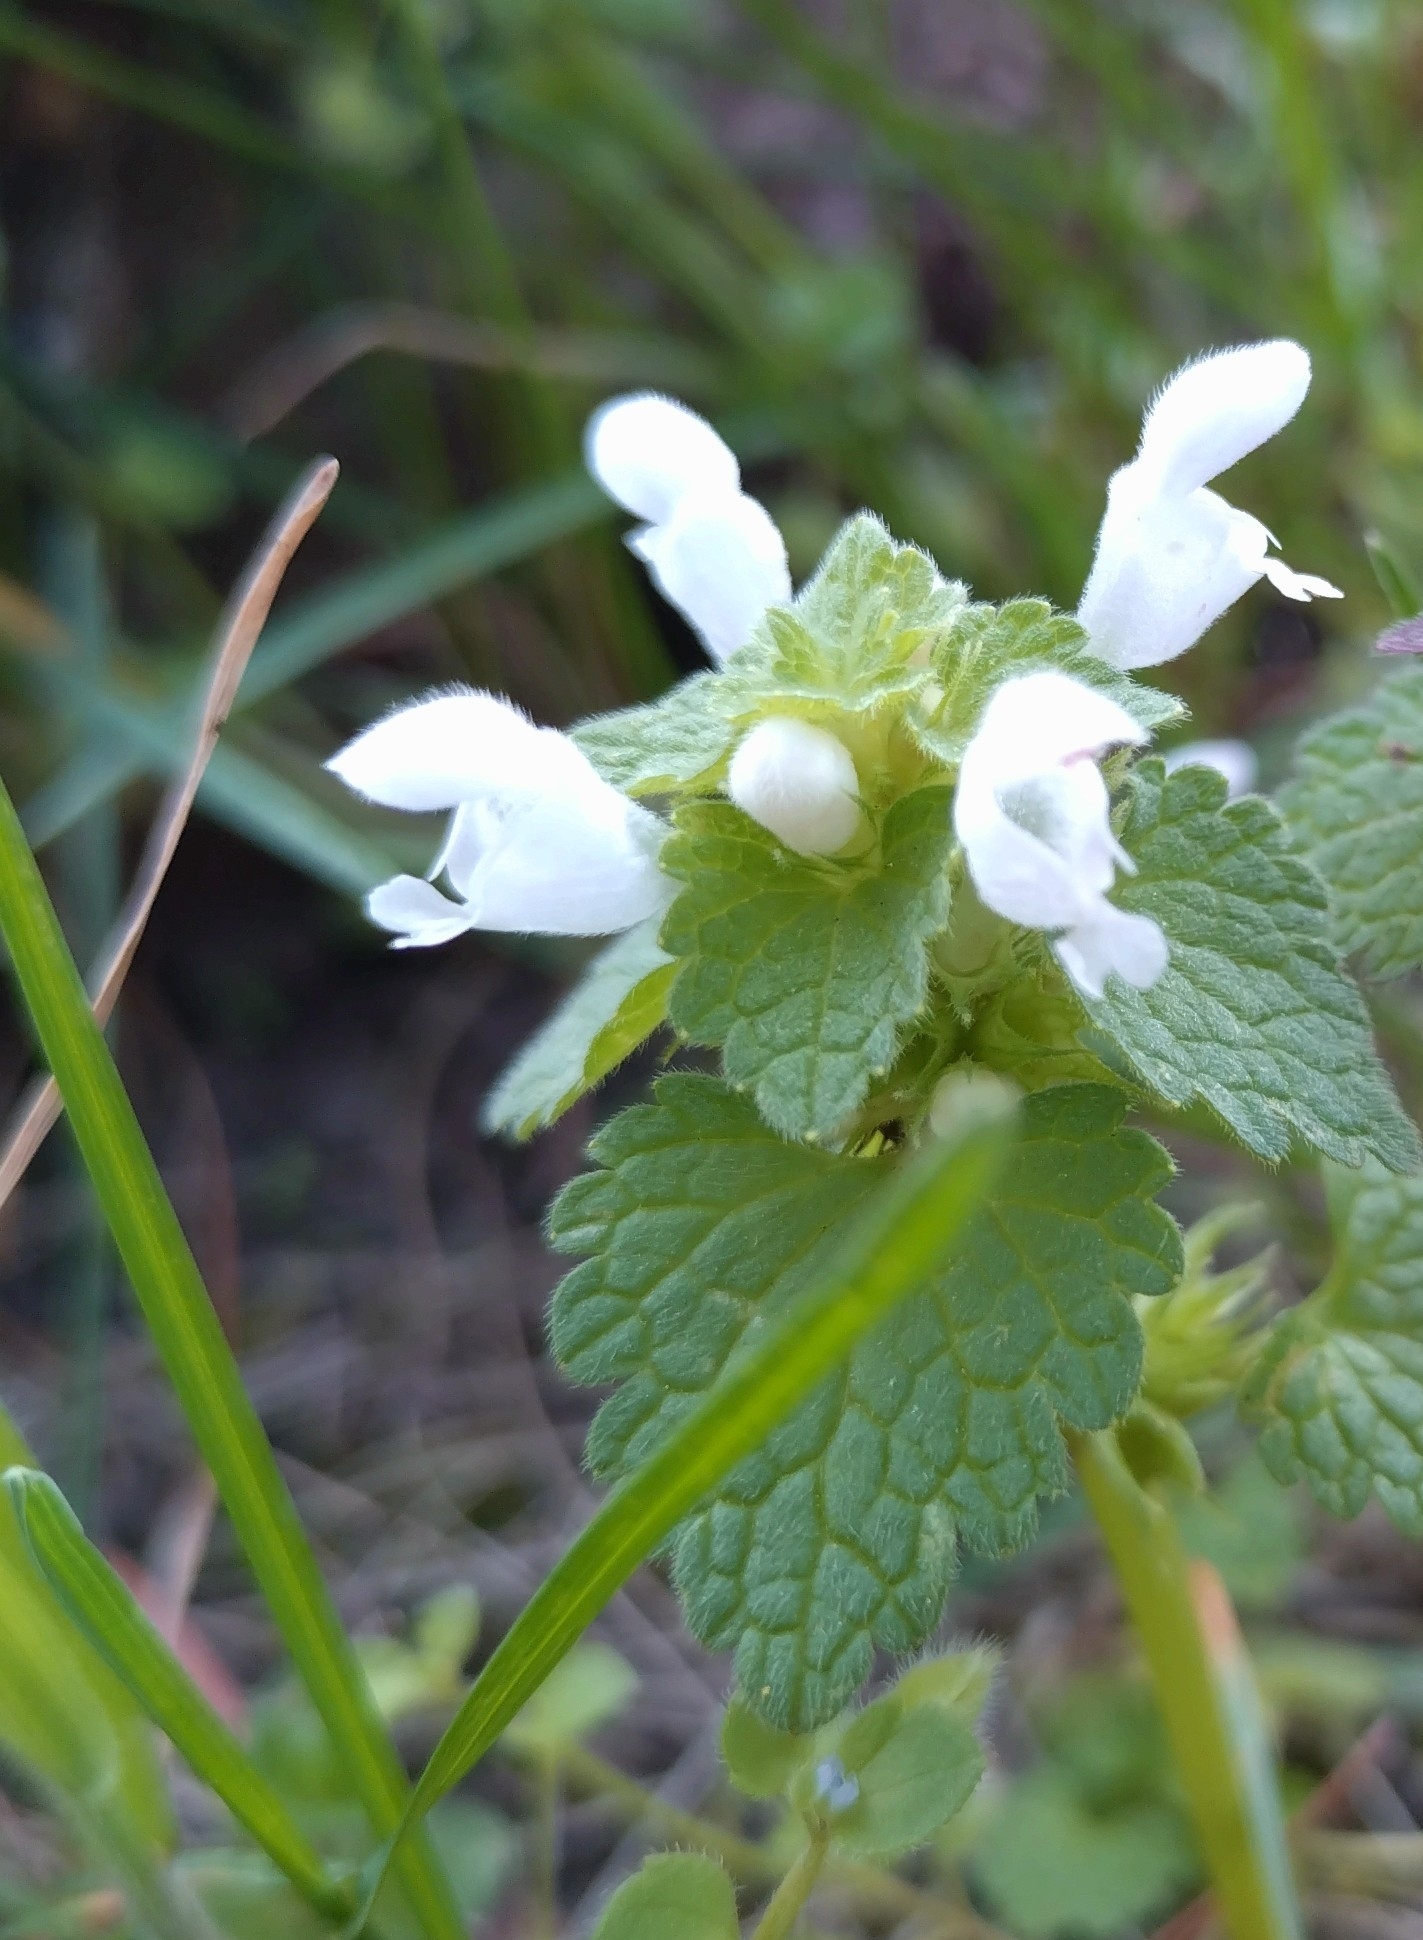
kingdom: Plantae
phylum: Tracheophyta
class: Magnoliopsida
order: Lamiales
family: Lamiaceae
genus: Lamium
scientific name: Lamium purpureum
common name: Red dead-nettle
